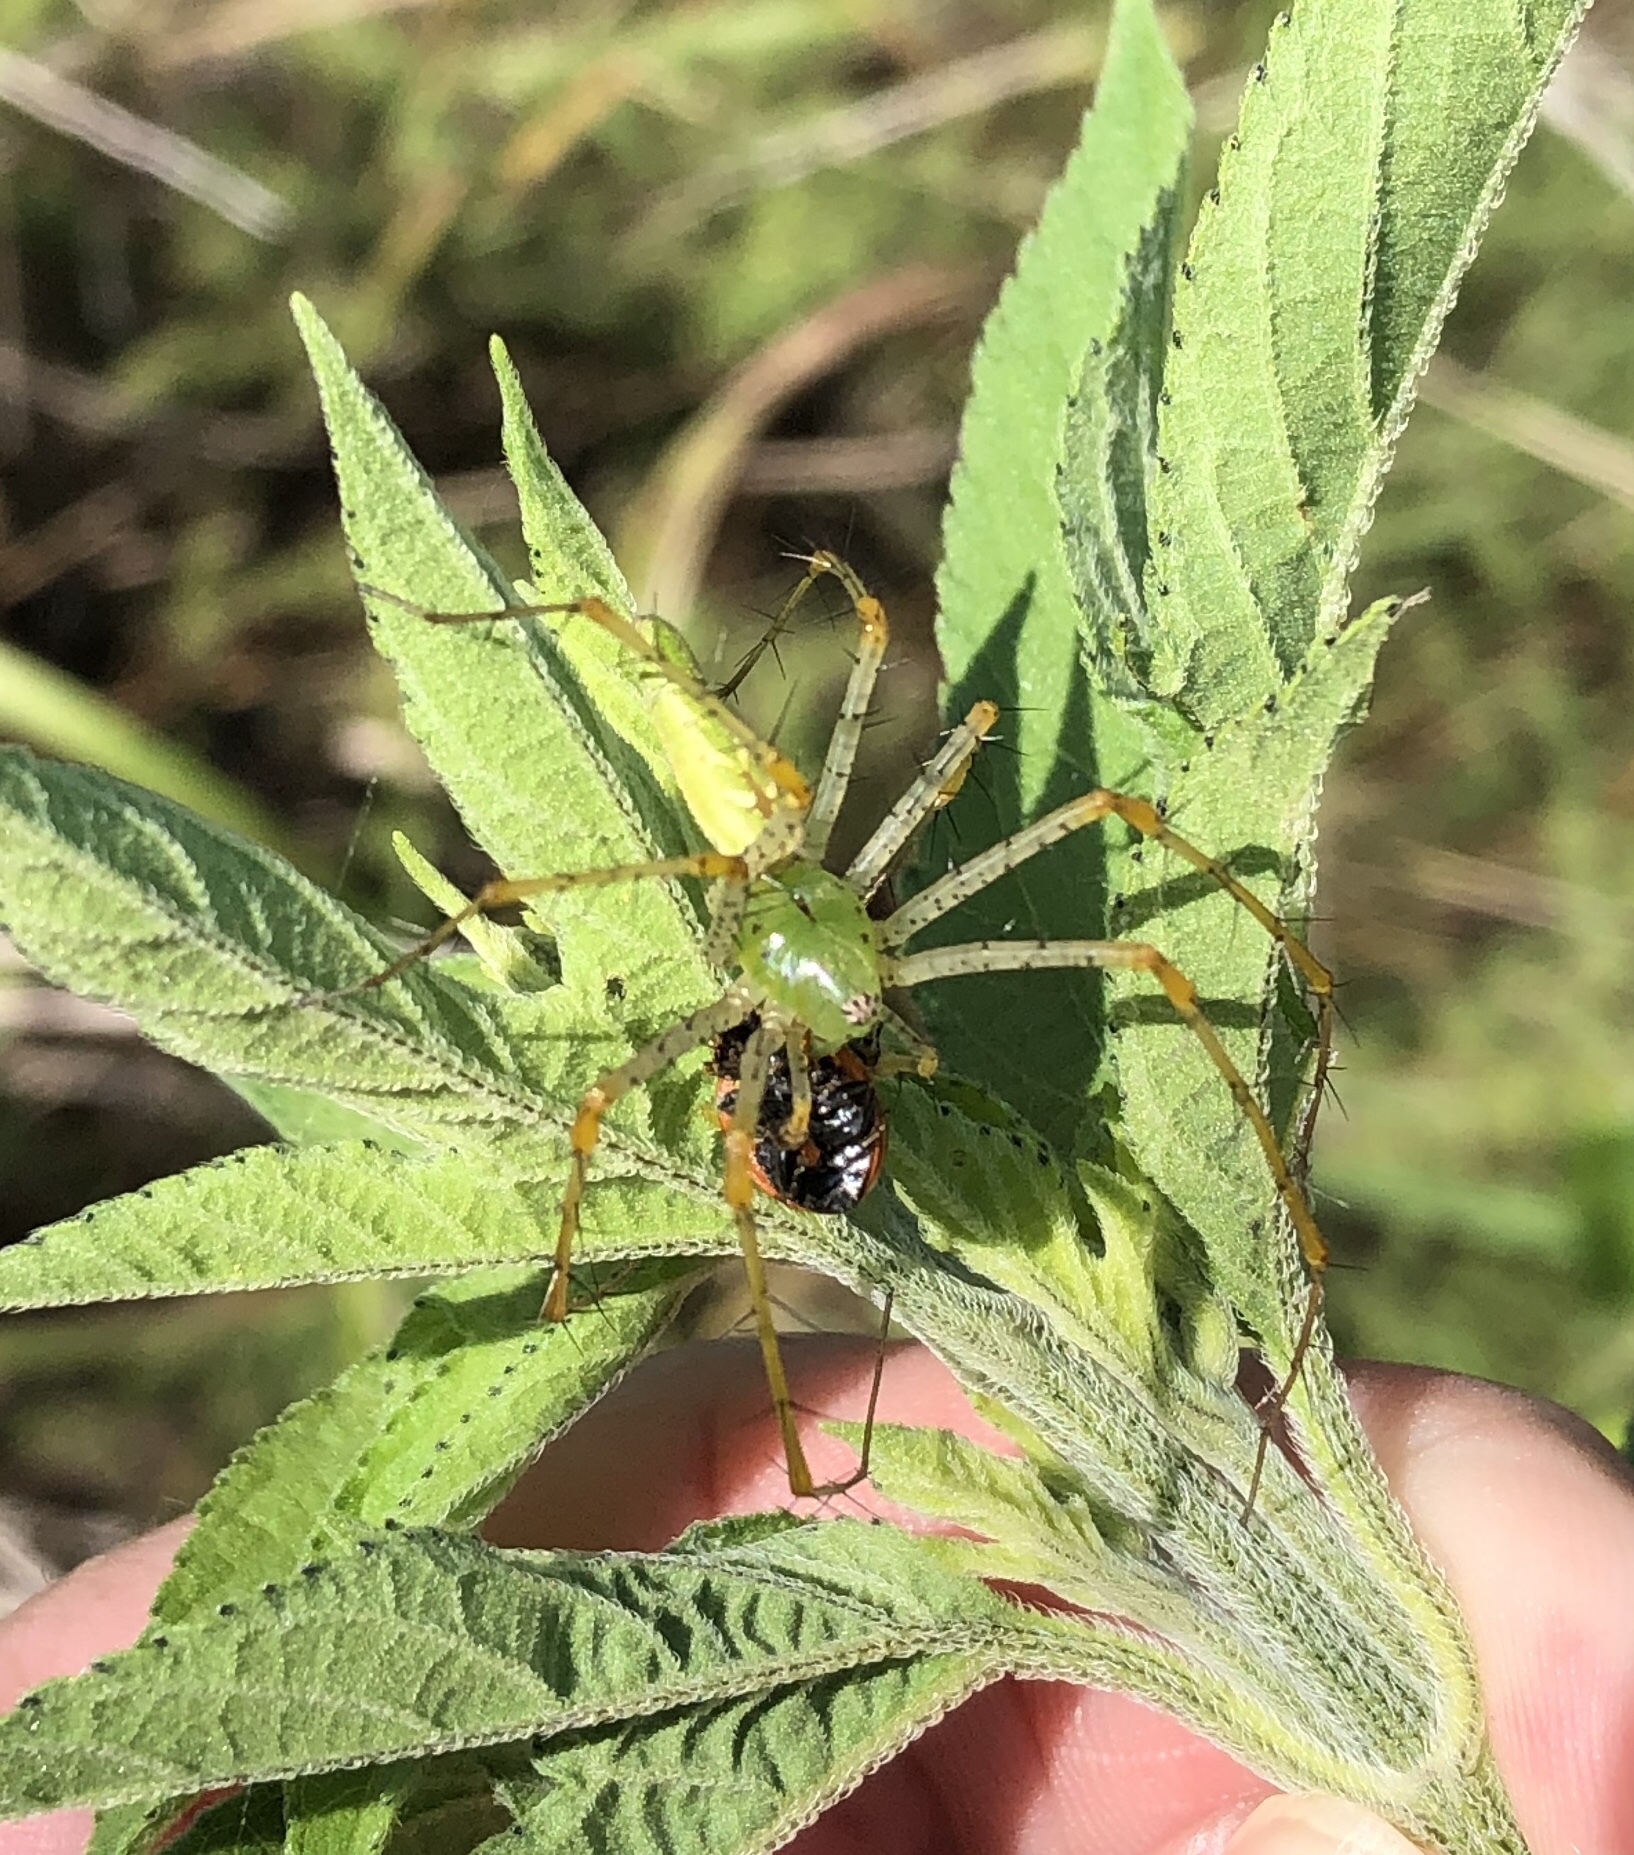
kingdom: Animalia
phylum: Arthropoda
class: Arachnida
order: Araneae
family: Oxyopidae
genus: Peucetia
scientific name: Peucetia viridans
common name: Lynx spiders
